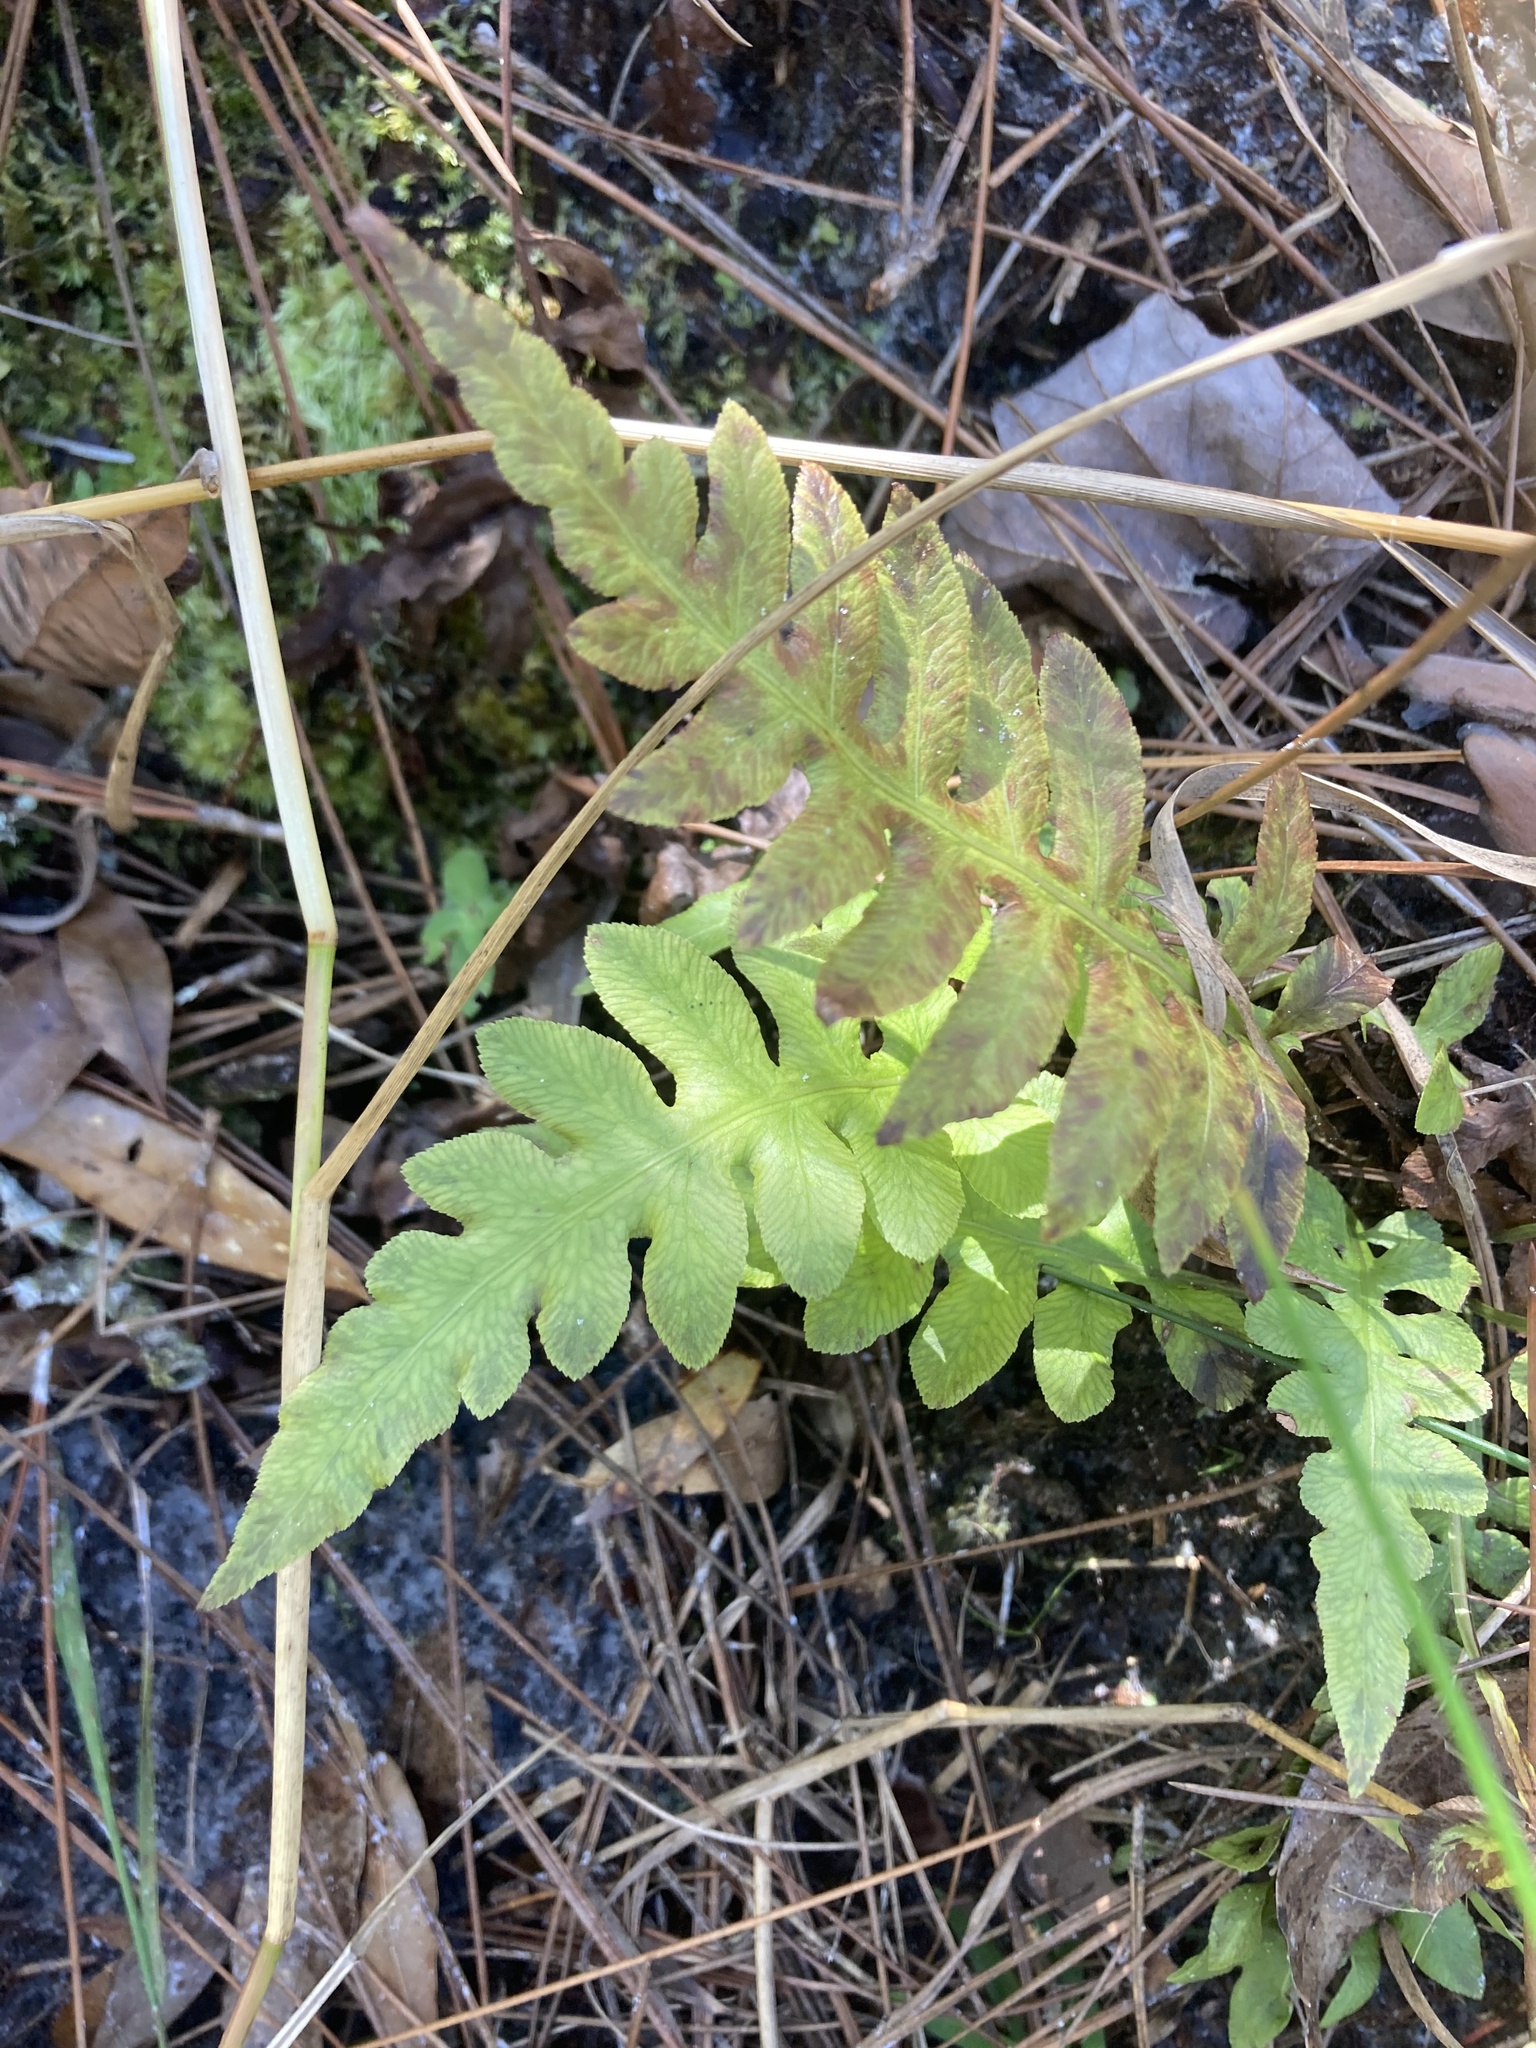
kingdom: Plantae
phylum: Tracheophyta
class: Polypodiopsida
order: Polypodiales
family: Blechnaceae
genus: Lorinseria
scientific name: Lorinseria areolata
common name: Dwarf chain fern
